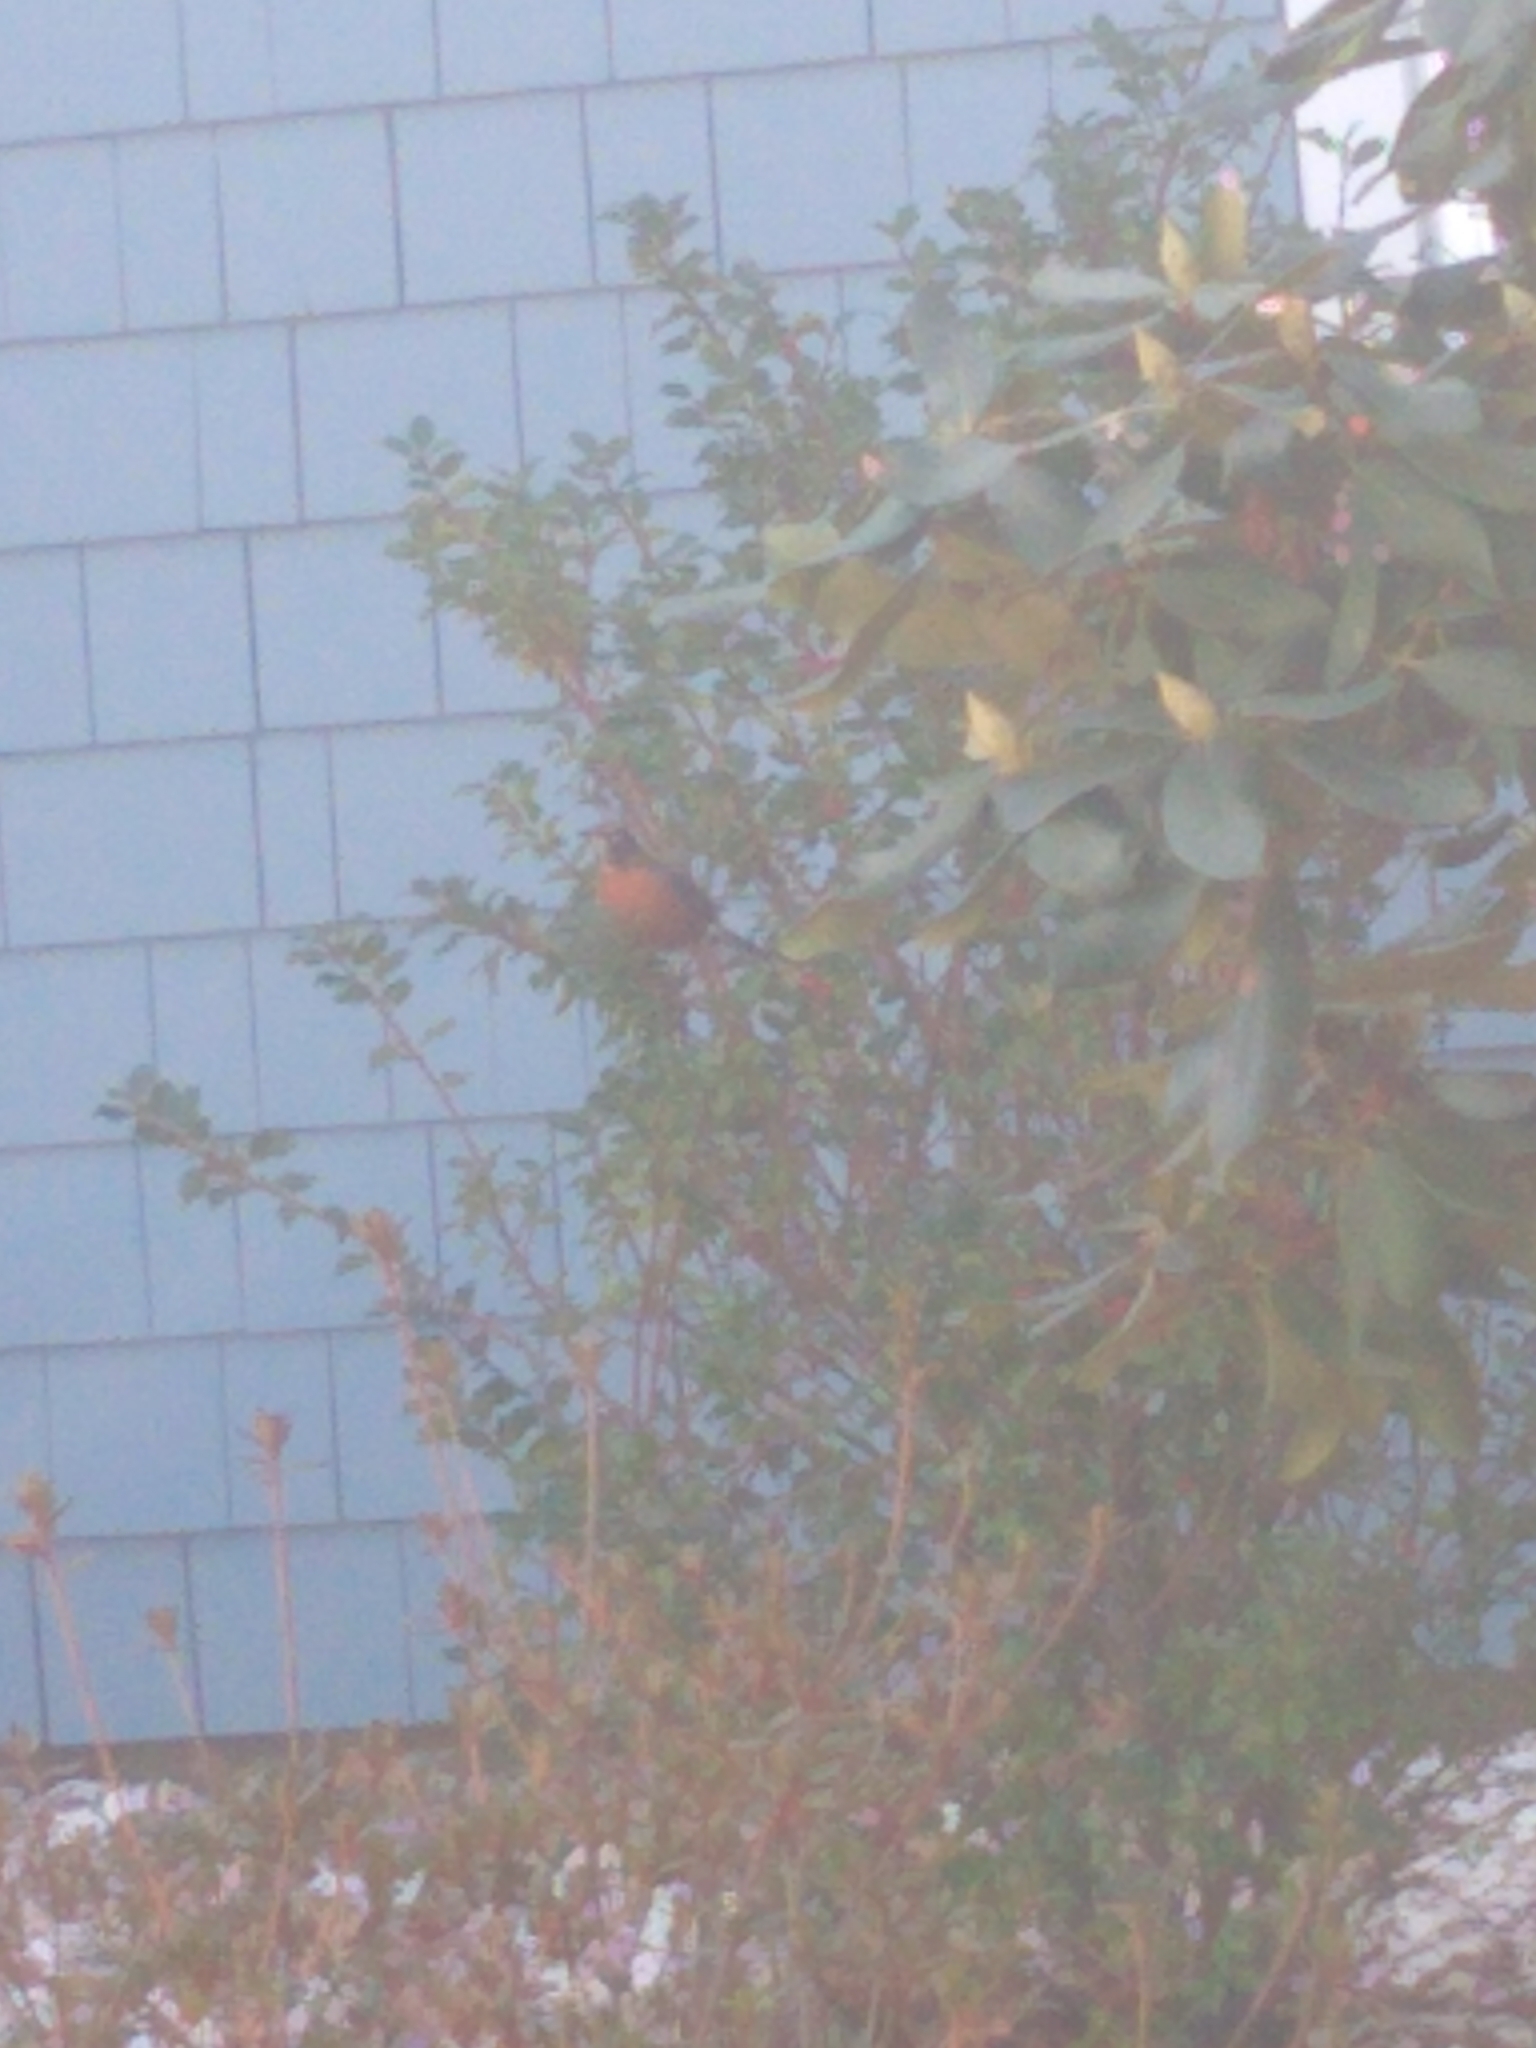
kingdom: Animalia
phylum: Chordata
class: Aves
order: Passeriformes
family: Turdidae
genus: Turdus
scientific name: Turdus migratorius
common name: American robin
